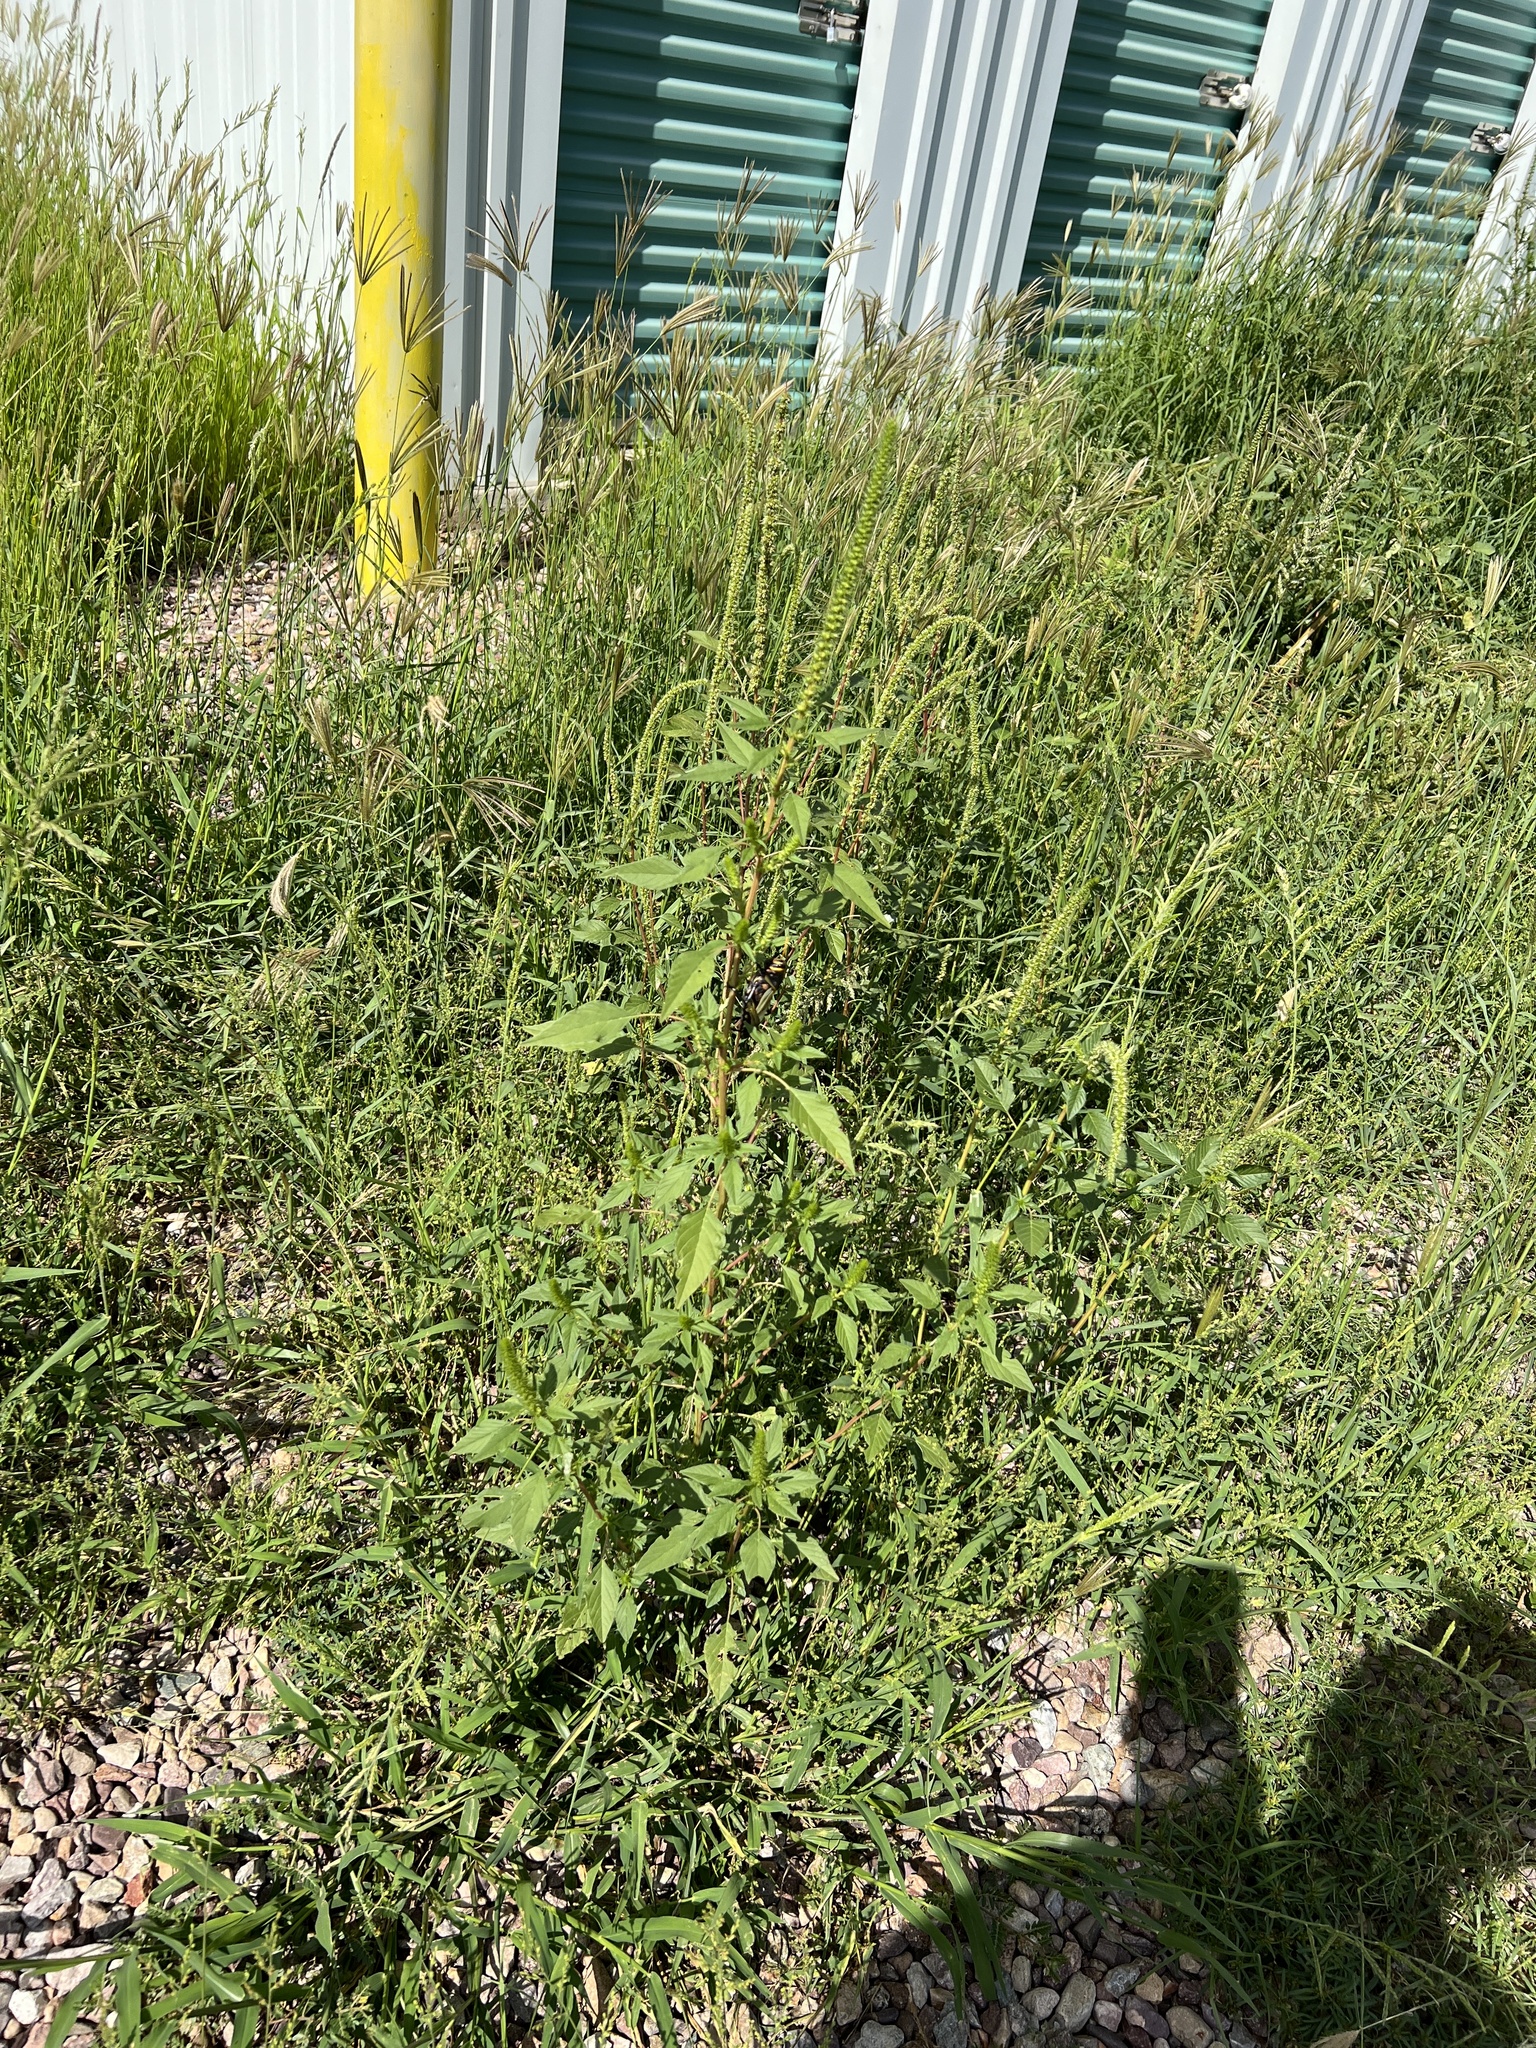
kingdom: Plantae
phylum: Tracheophyta
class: Magnoliopsida
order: Caryophyllales
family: Amaranthaceae
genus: Amaranthus
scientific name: Amaranthus palmeri
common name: Dioecious amaranth
